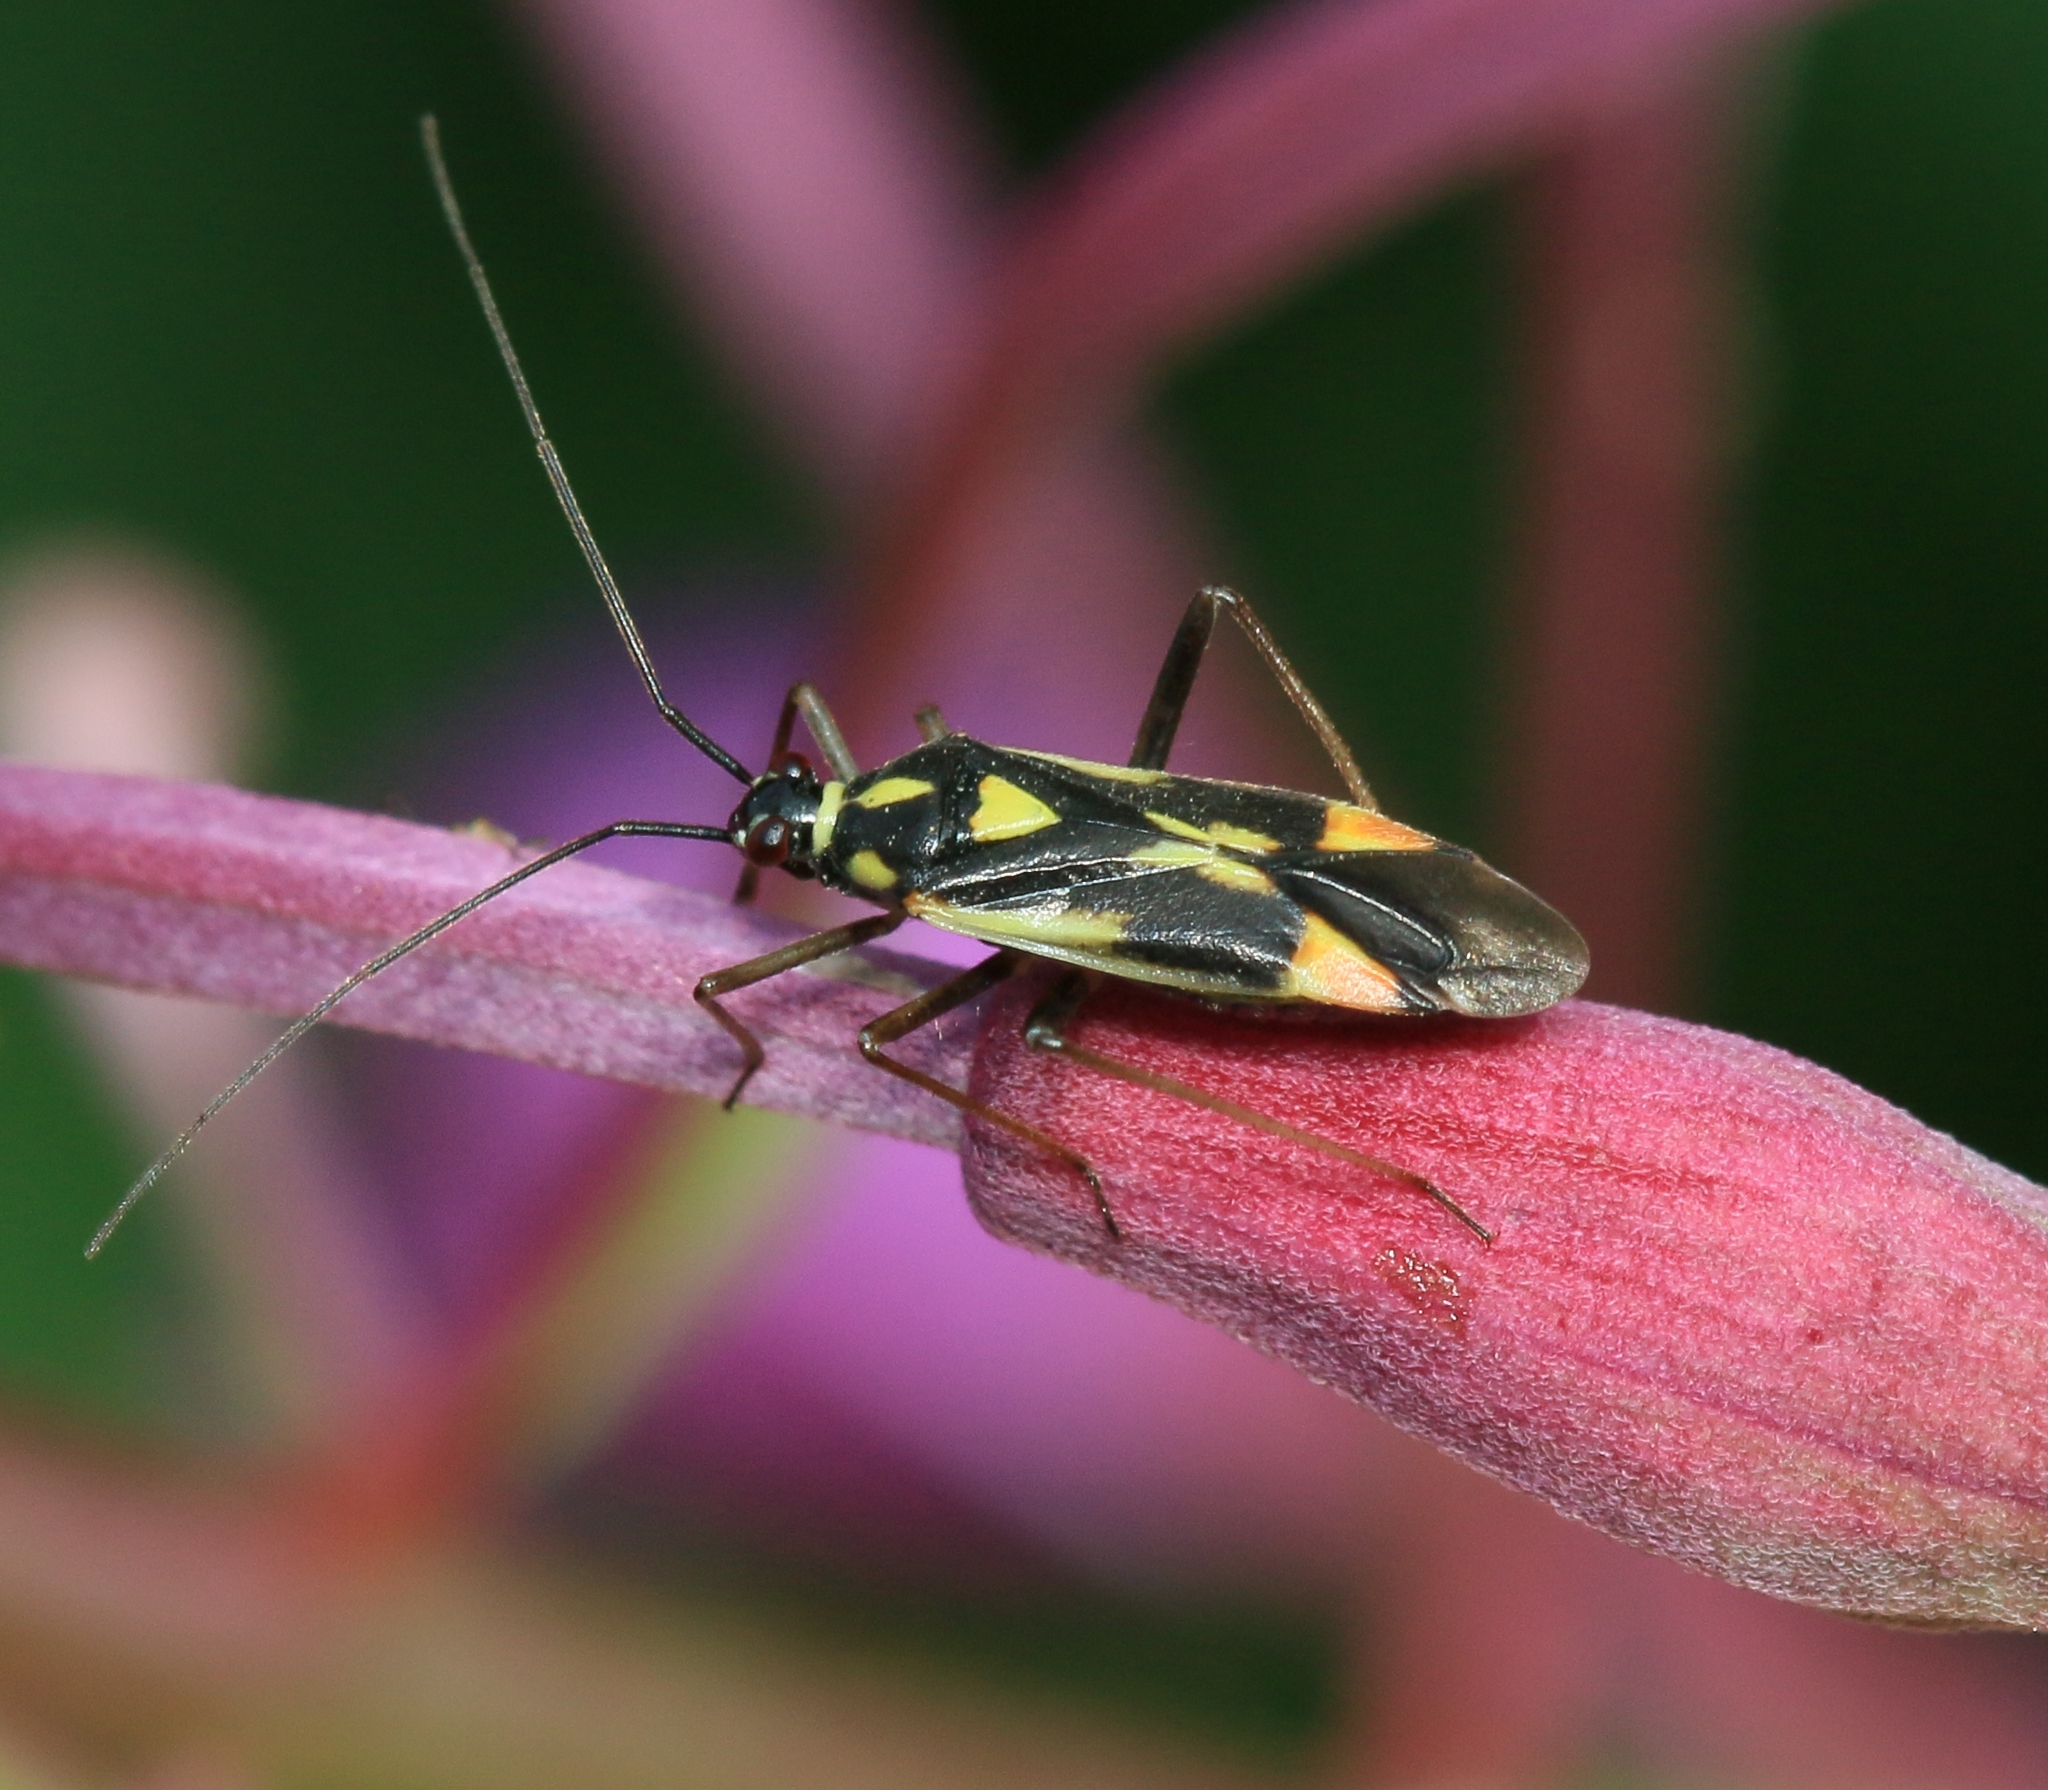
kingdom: Animalia
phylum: Arthropoda
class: Insecta
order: Hemiptera
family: Miridae
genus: Grypocoris
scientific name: Grypocoris stysi
